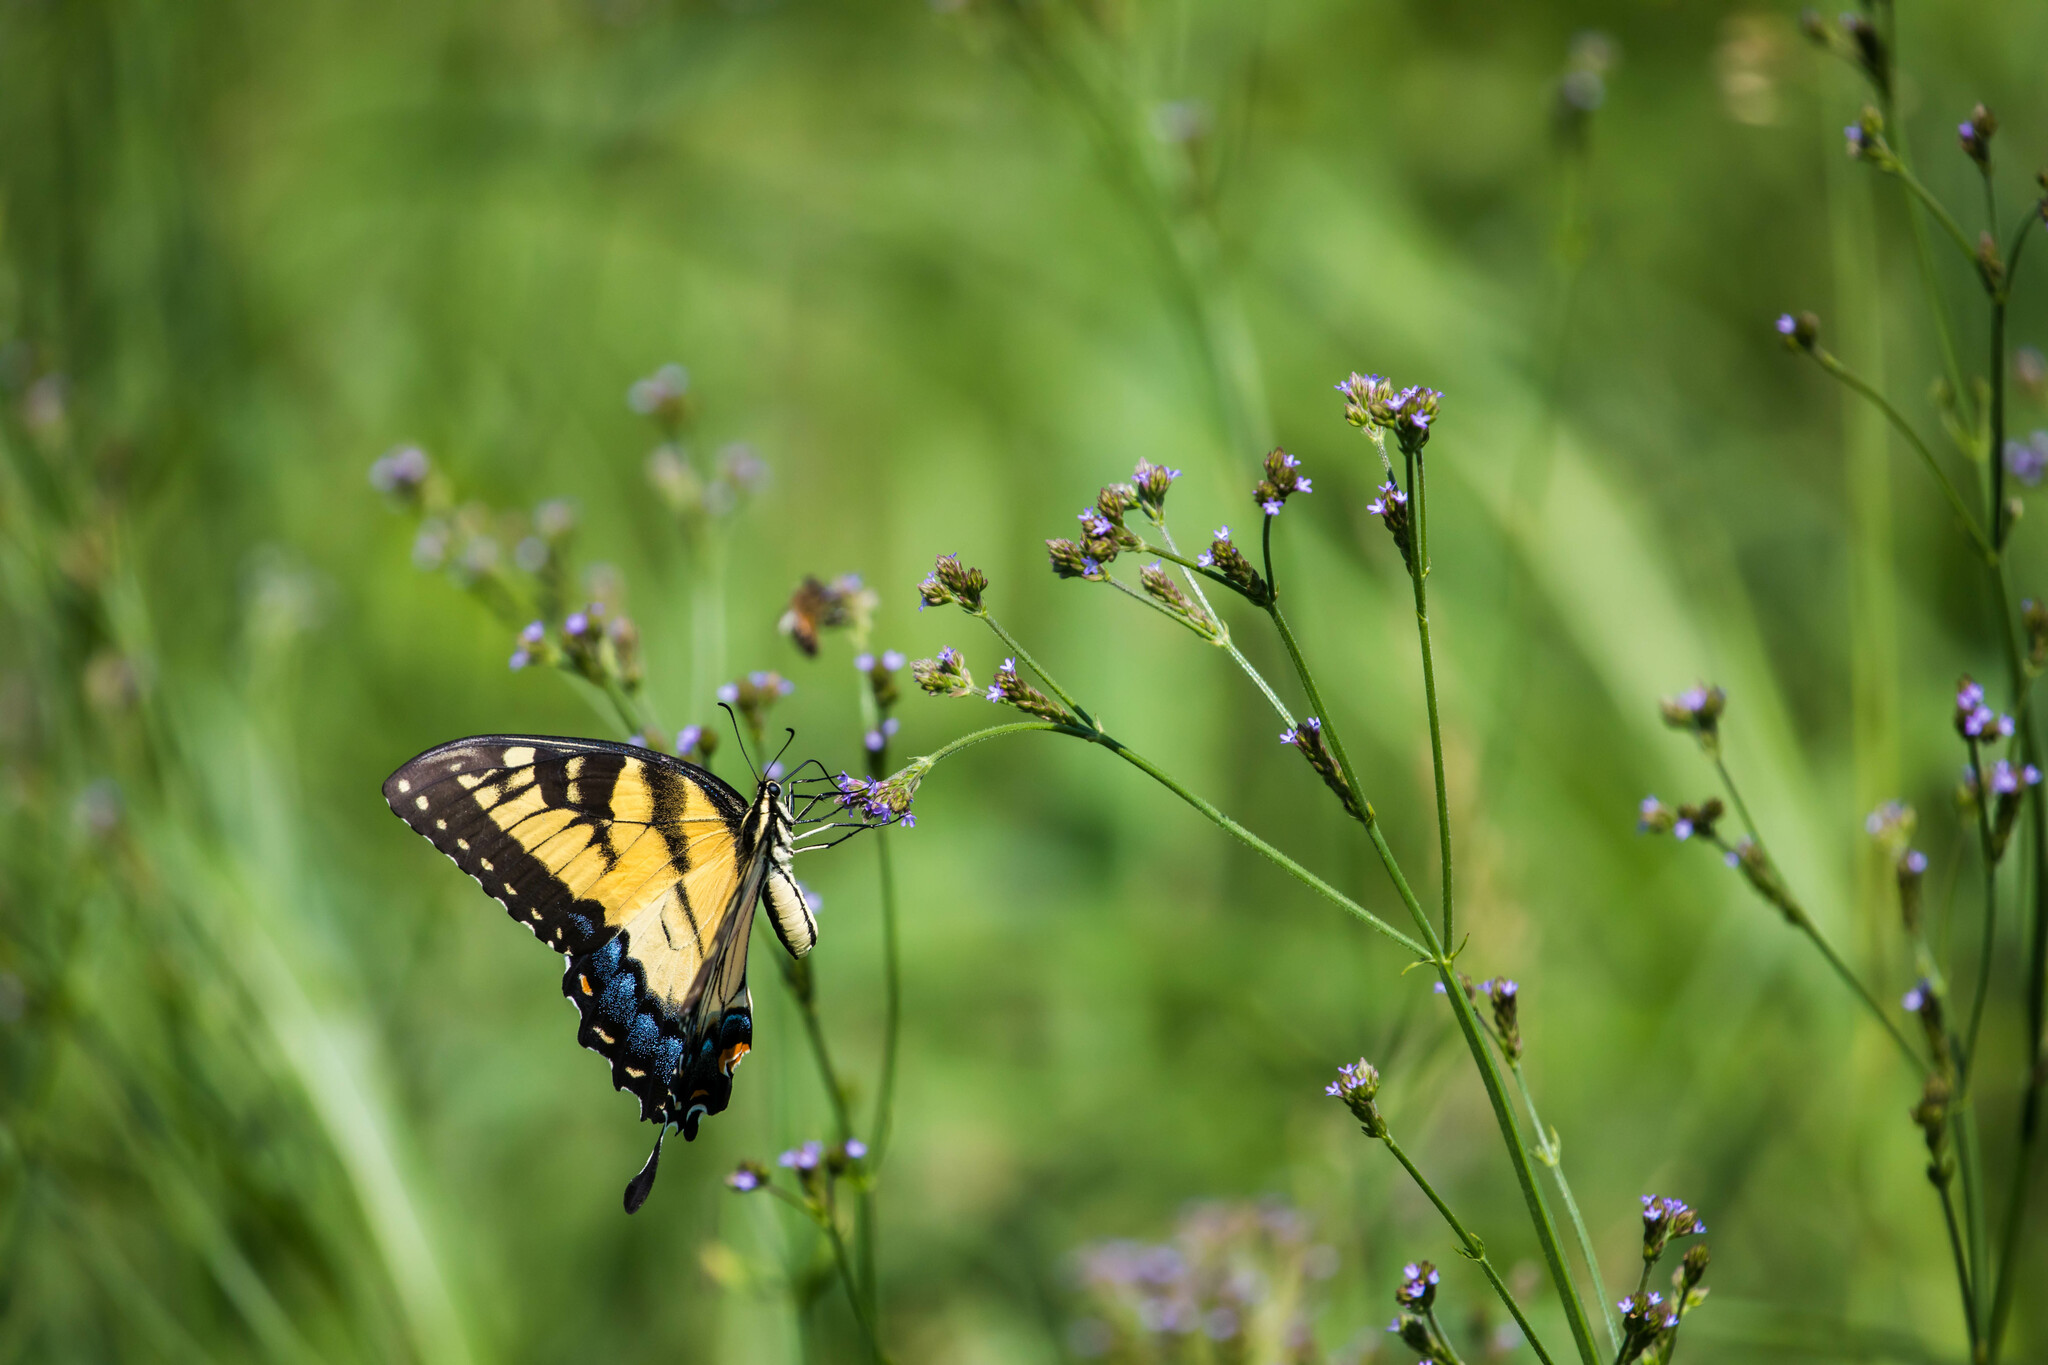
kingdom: Animalia
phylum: Arthropoda
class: Insecta
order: Lepidoptera
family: Papilionidae
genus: Papilio
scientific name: Papilio glaucus
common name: Tiger swallowtail
